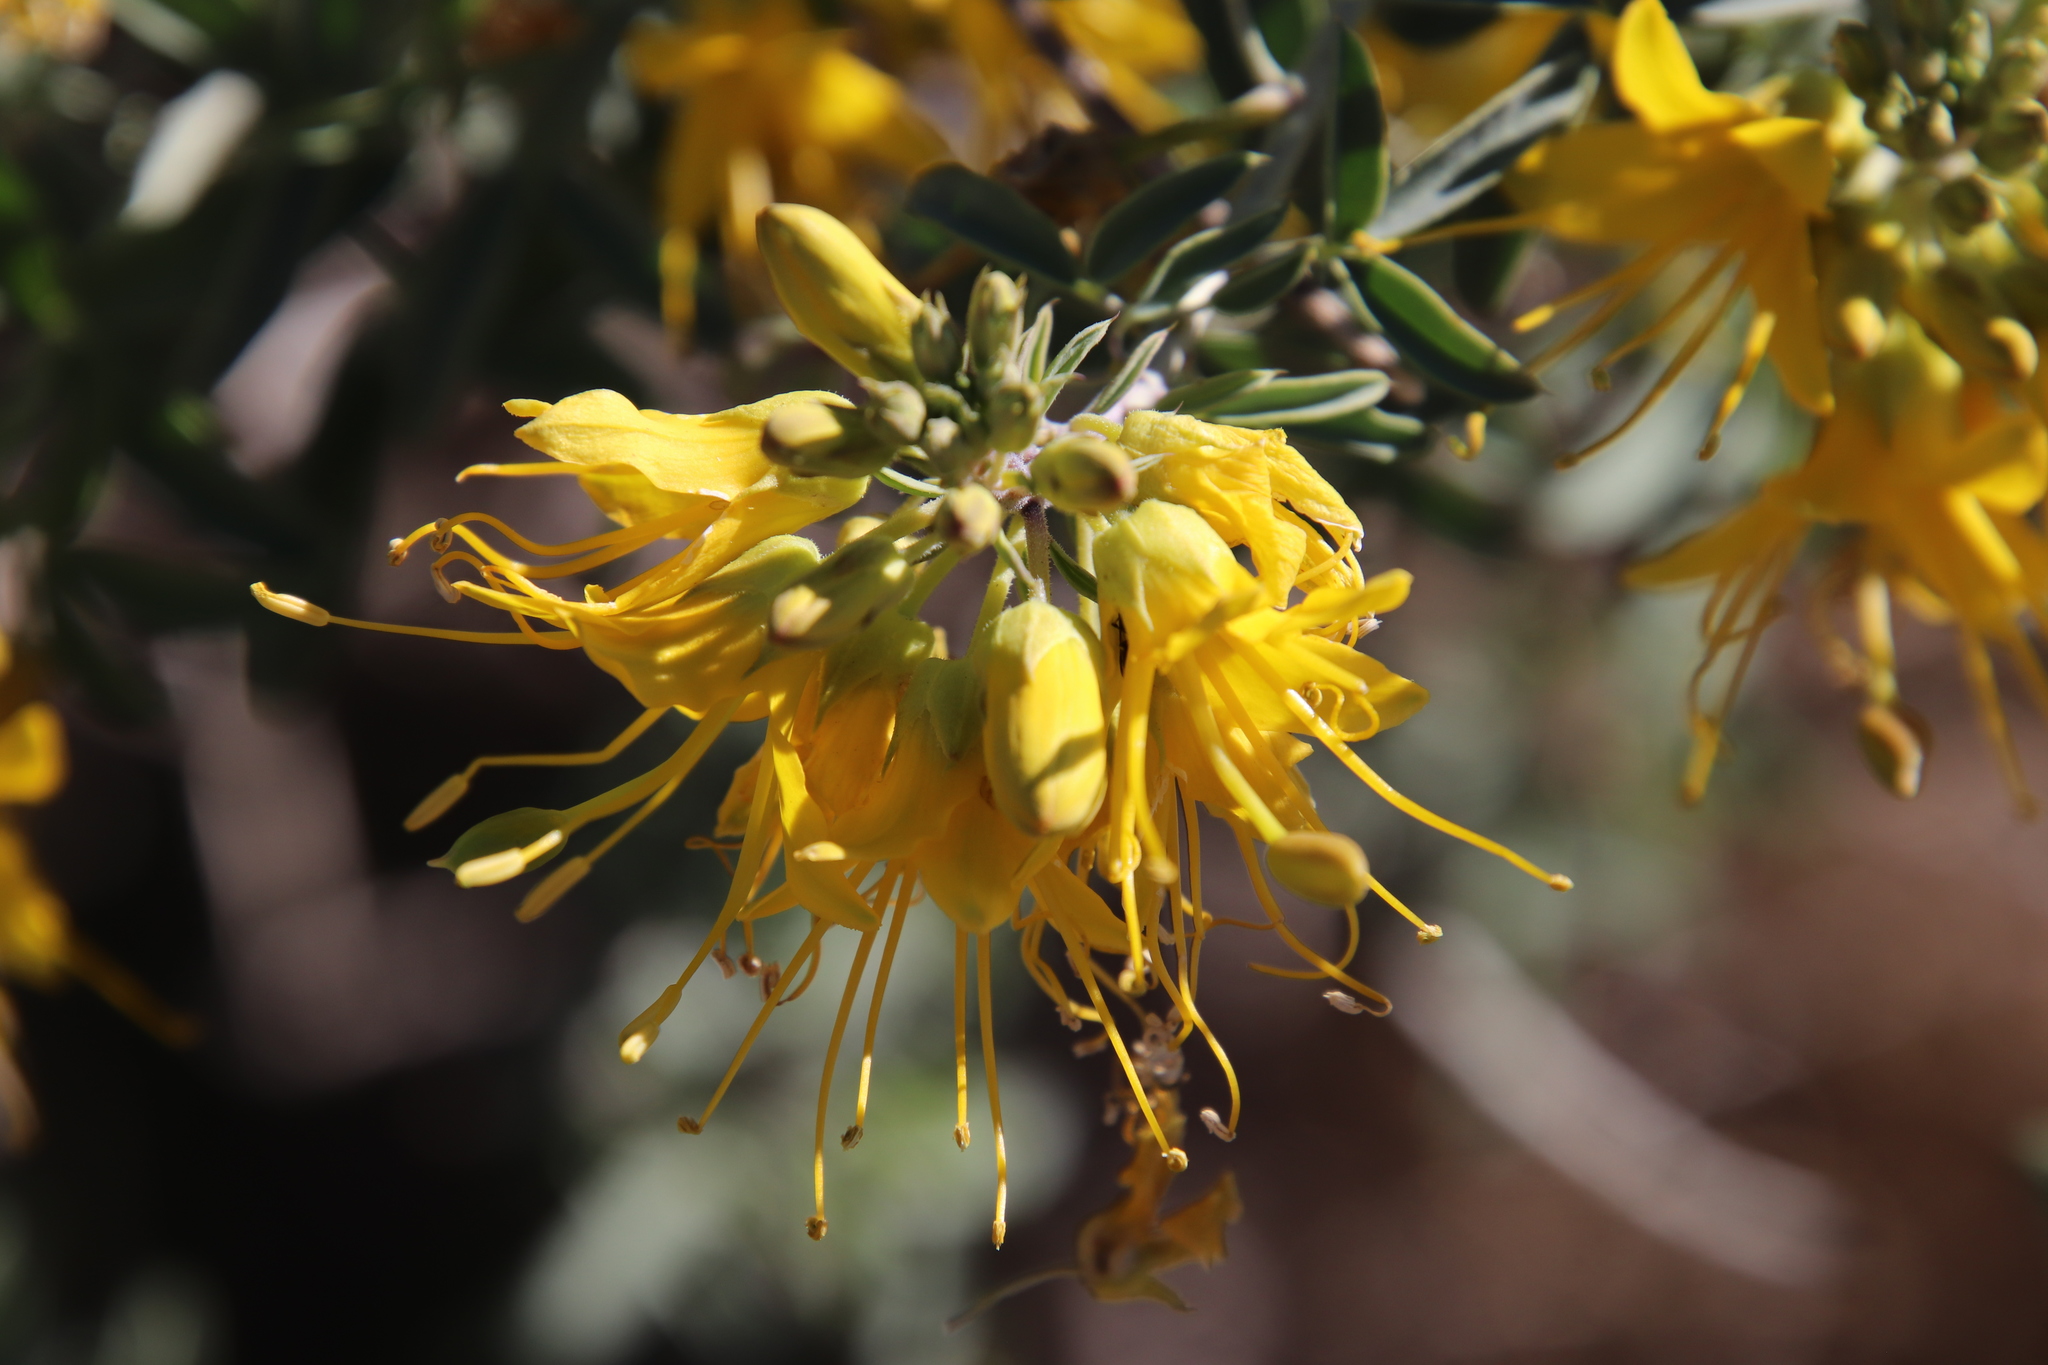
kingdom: Plantae
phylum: Tracheophyta
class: Magnoliopsida
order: Brassicales
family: Cleomaceae
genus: Cleomella
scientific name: Cleomella arborea
